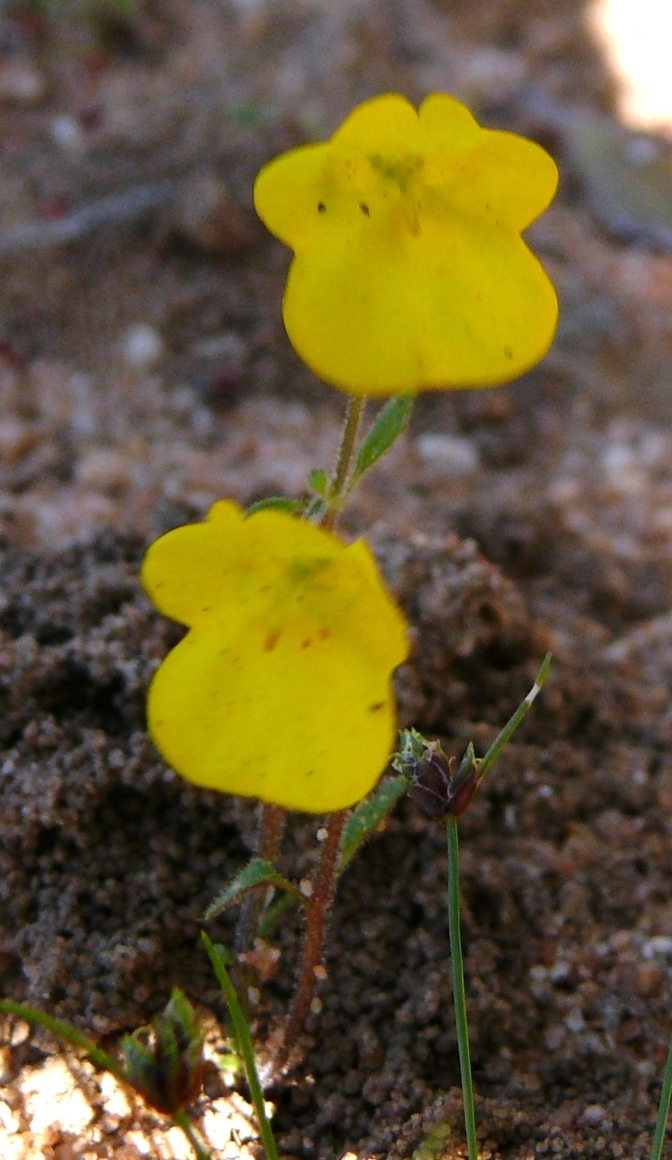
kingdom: Plantae
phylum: Tracheophyta
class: Magnoliopsida
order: Lamiales
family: Scrophulariaceae
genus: Hemimeris
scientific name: Hemimeris racemosa
